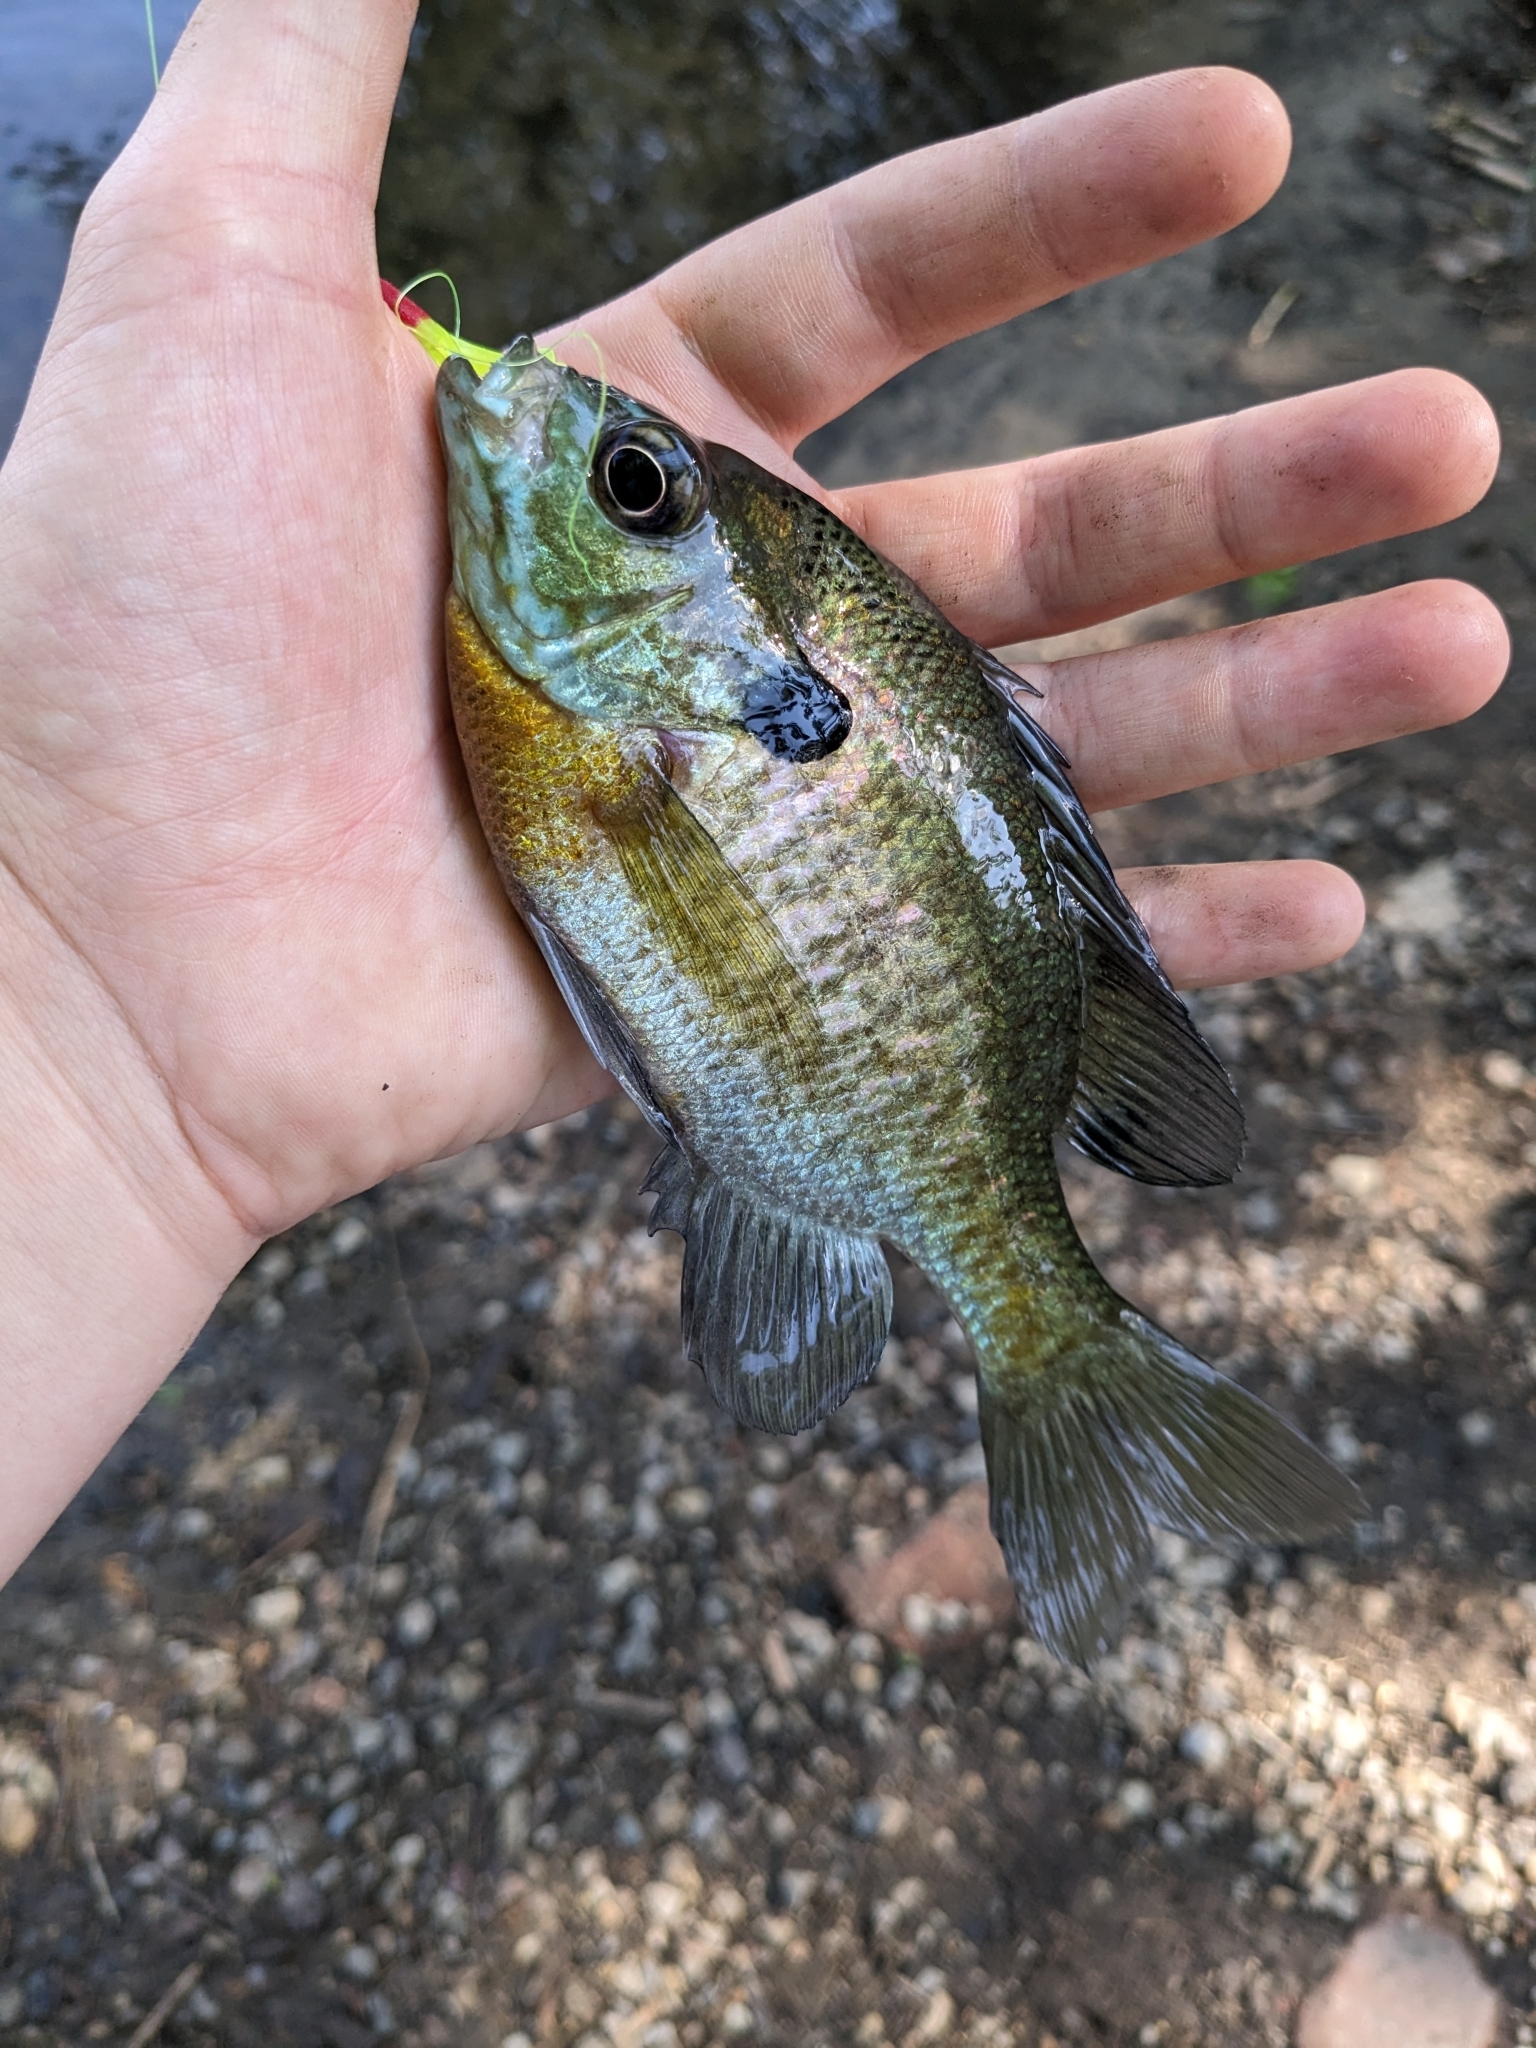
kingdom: Animalia
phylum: Chordata
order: Perciformes
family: Centrarchidae
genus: Lepomis
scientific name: Lepomis macrochirus
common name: Bluegill
